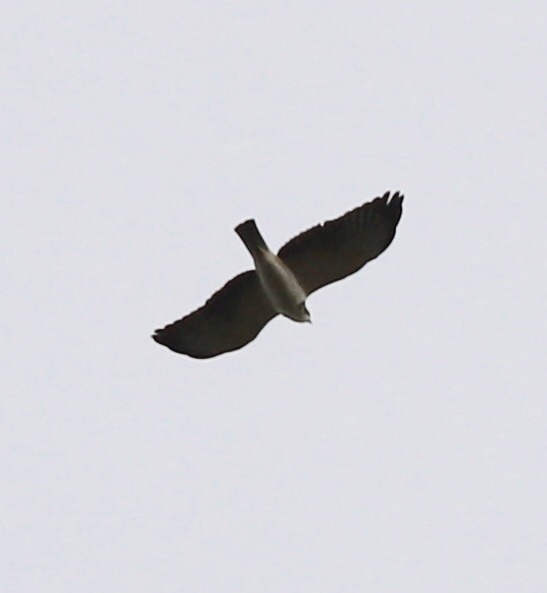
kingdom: Animalia
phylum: Chordata
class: Aves
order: Accipitriformes
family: Accipitridae
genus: Buteo
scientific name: Buteo brachyurus
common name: Short-tailed hawk
